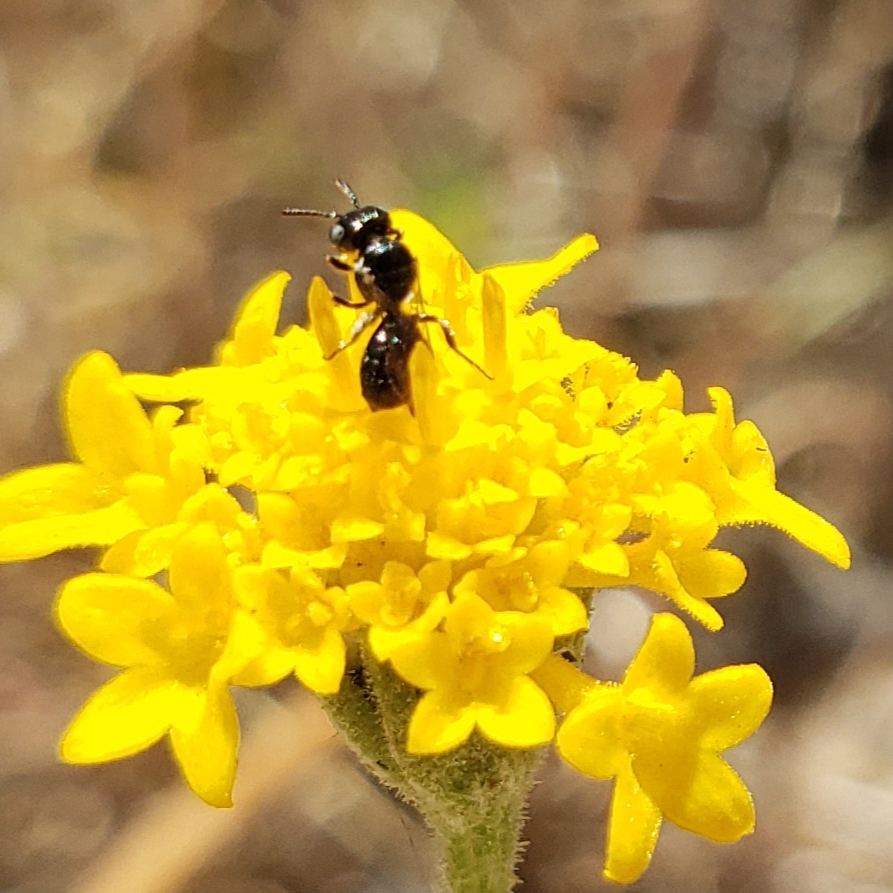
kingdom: Animalia
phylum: Arthropoda
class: Insecta
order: Hymenoptera
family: Apidae
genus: Ceratina
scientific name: Ceratina arizonensis
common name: Arizona small carpenter bee
